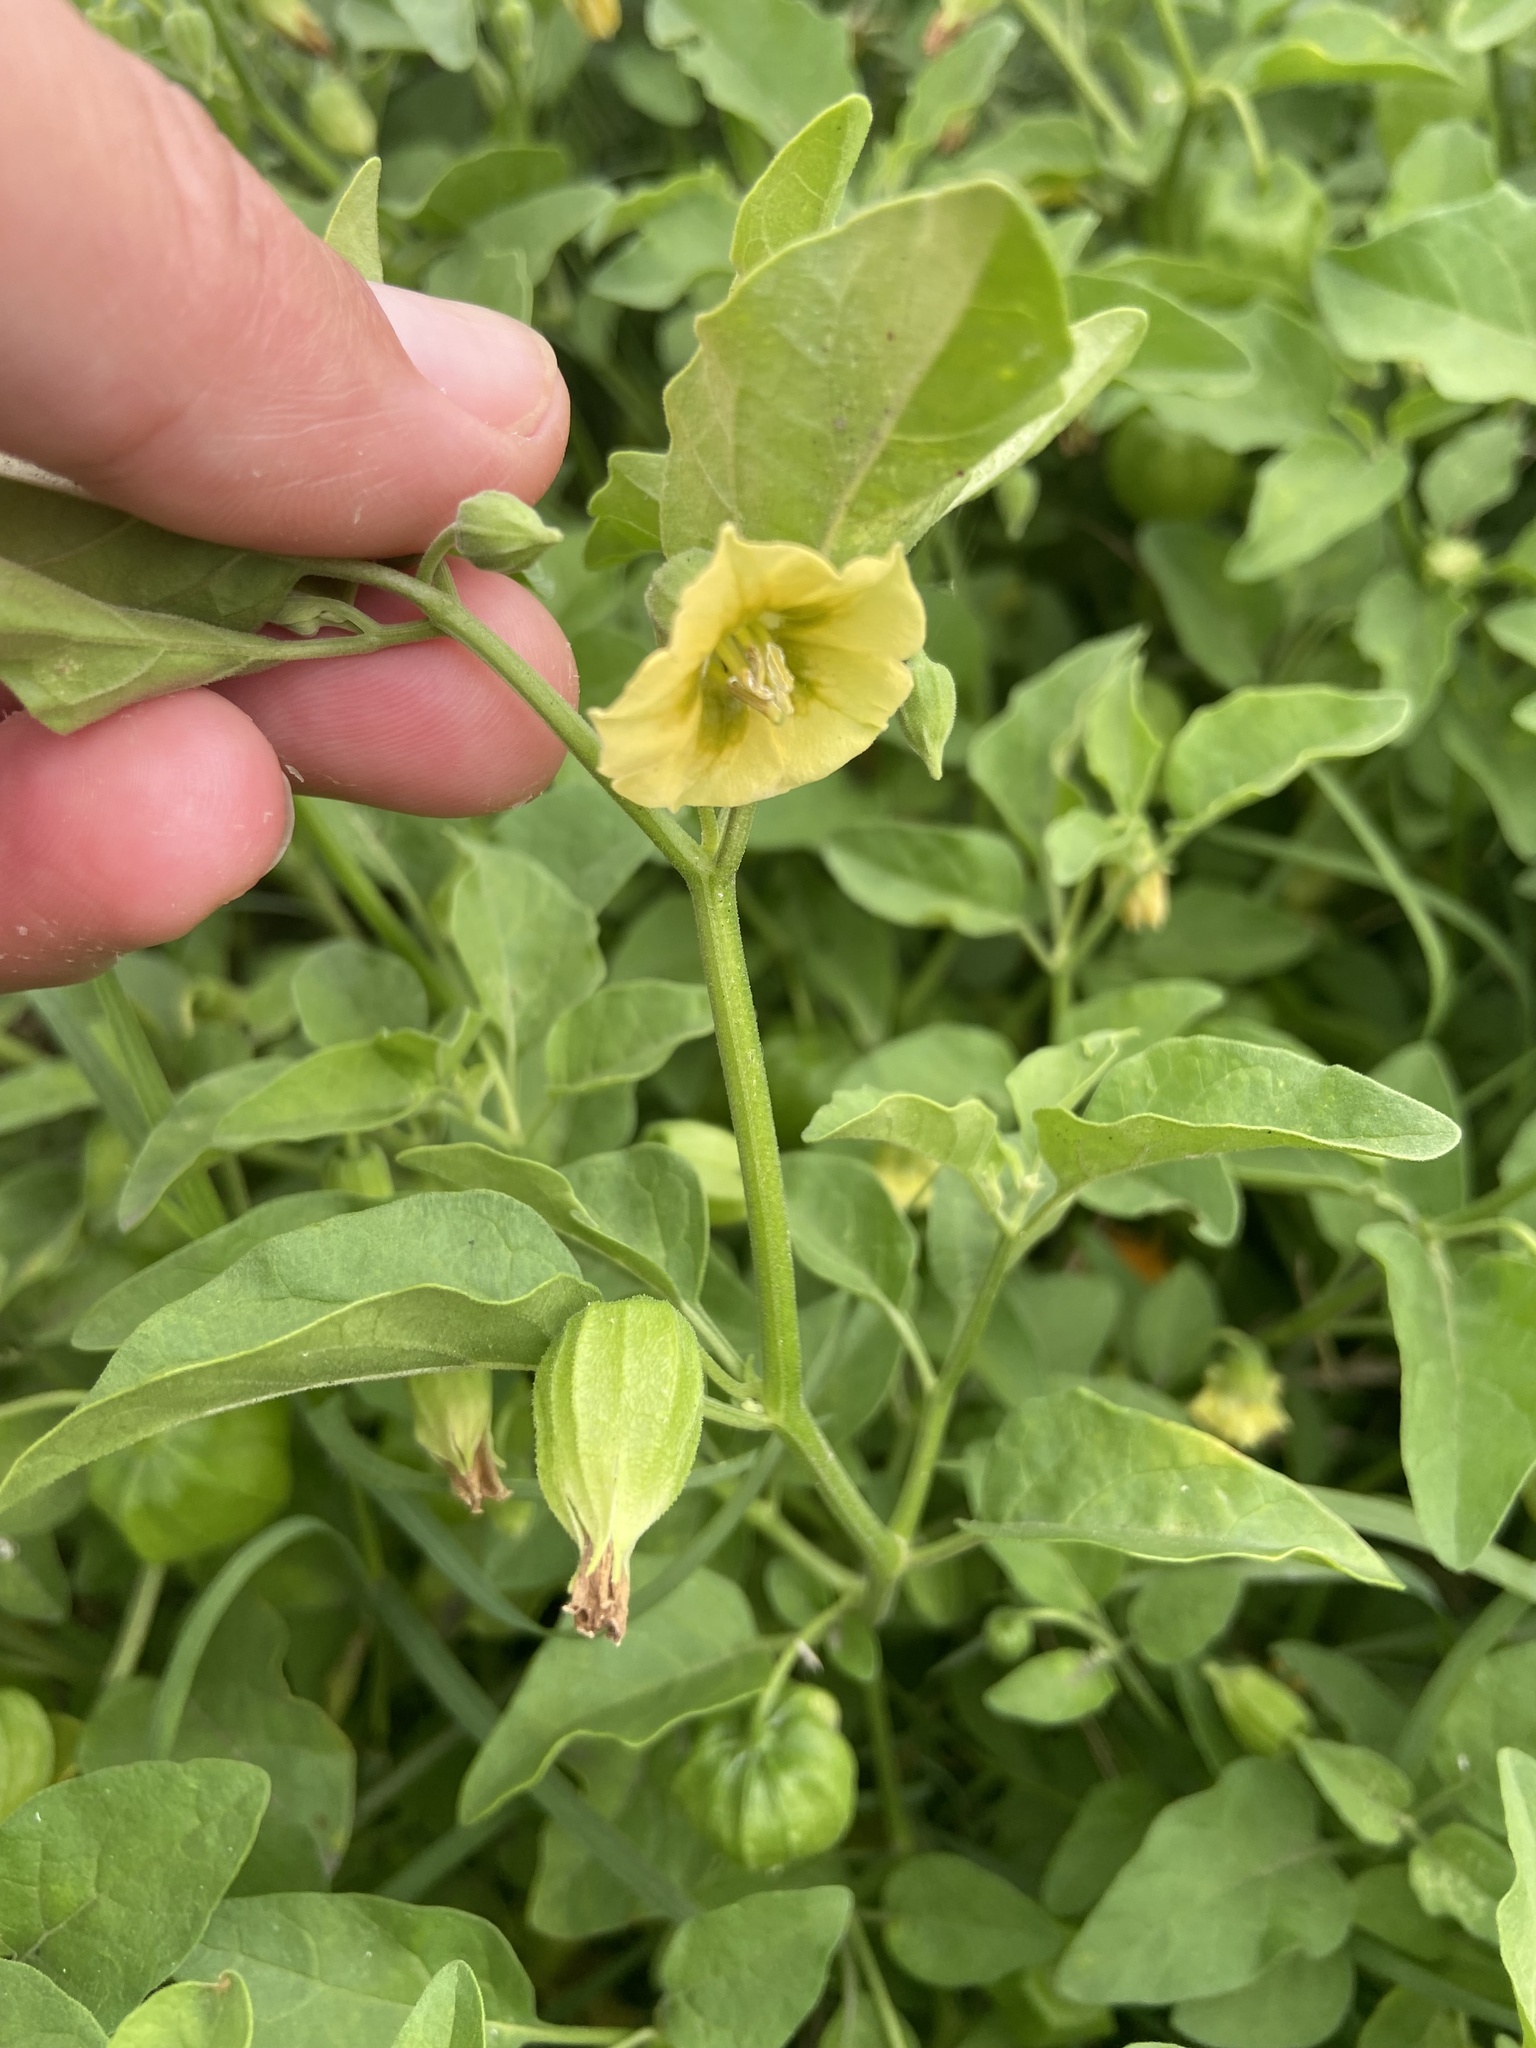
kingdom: Plantae
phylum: Tracheophyta
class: Magnoliopsida
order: Solanales
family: Solanaceae
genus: Physalis
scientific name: Physalis viscosa
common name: Stellate ground-cherry
